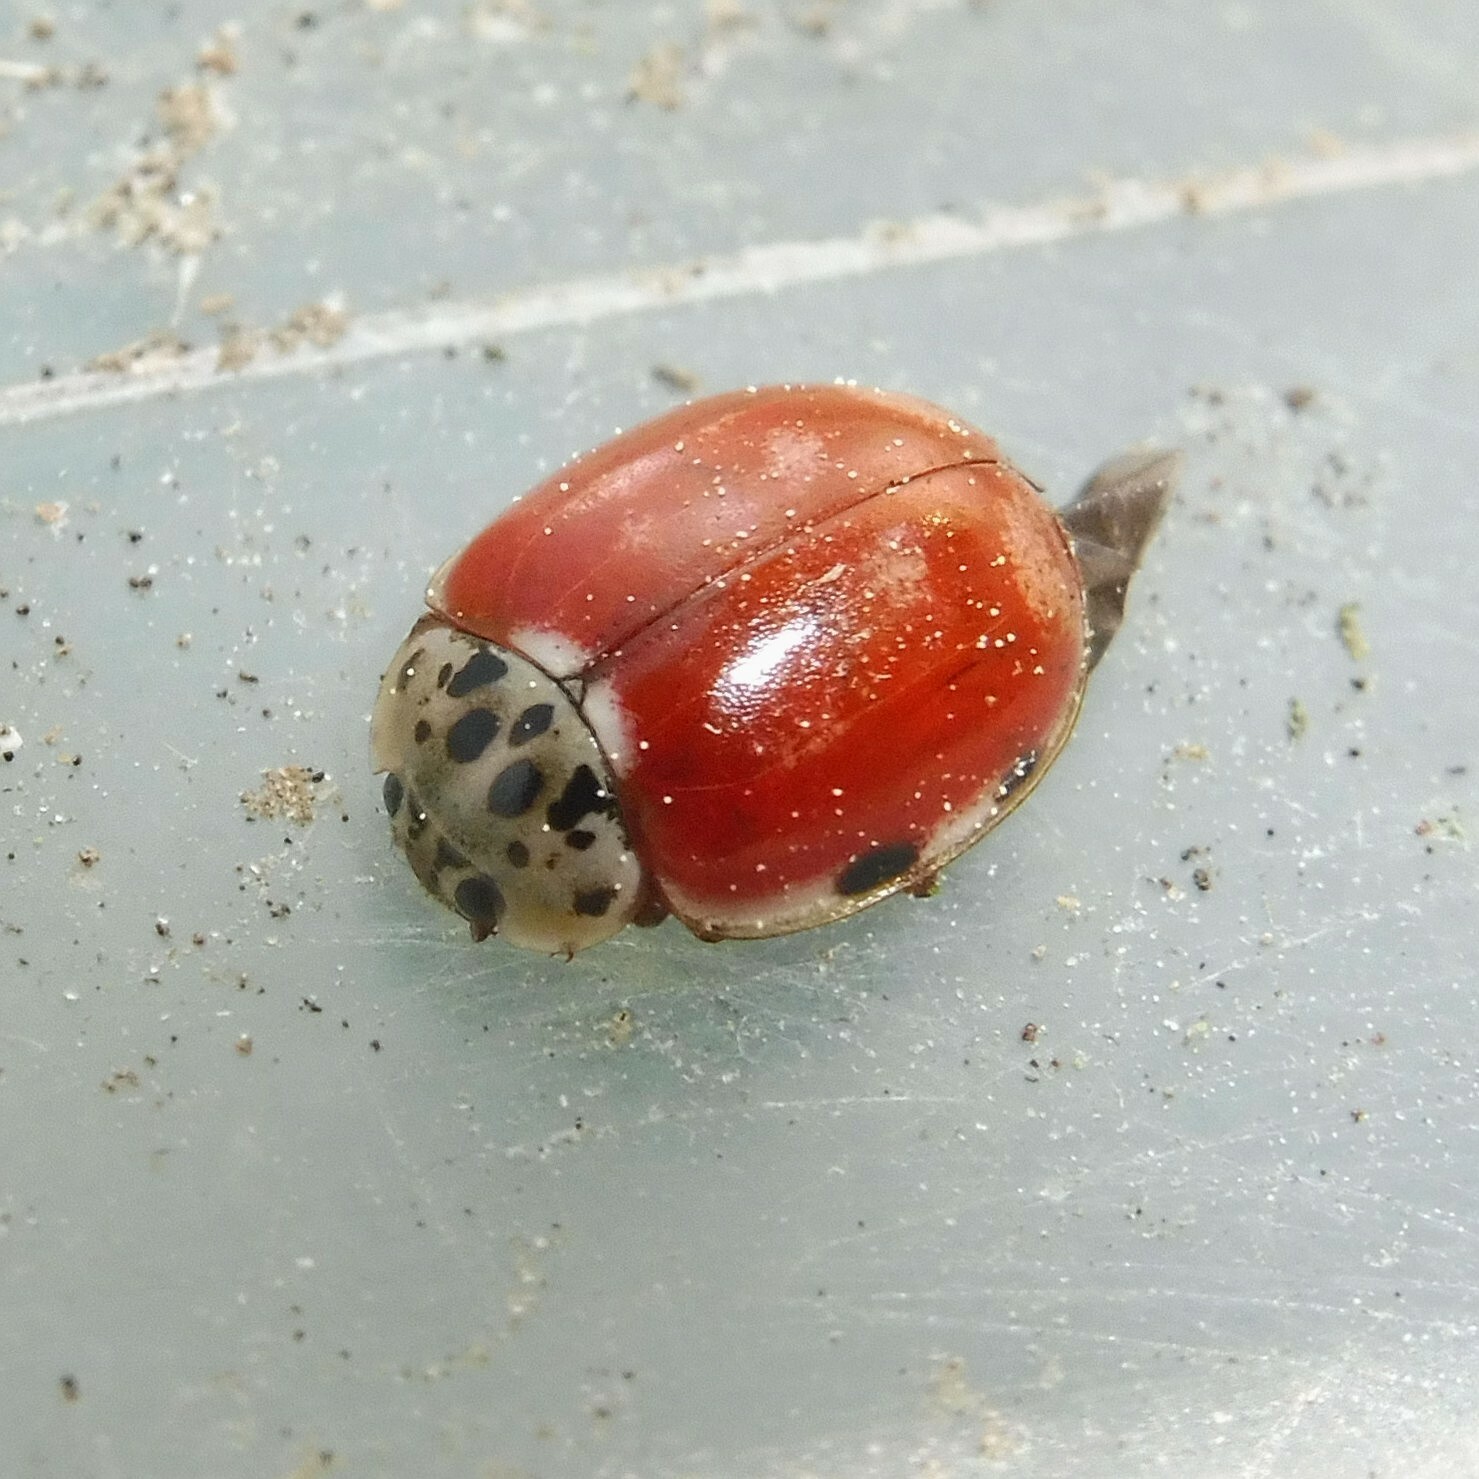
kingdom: Animalia
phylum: Arthropoda
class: Insecta
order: Coleoptera
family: Coccinellidae
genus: Harmonia
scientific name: Harmonia quadripunctata
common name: Cream-streaked ladybird
